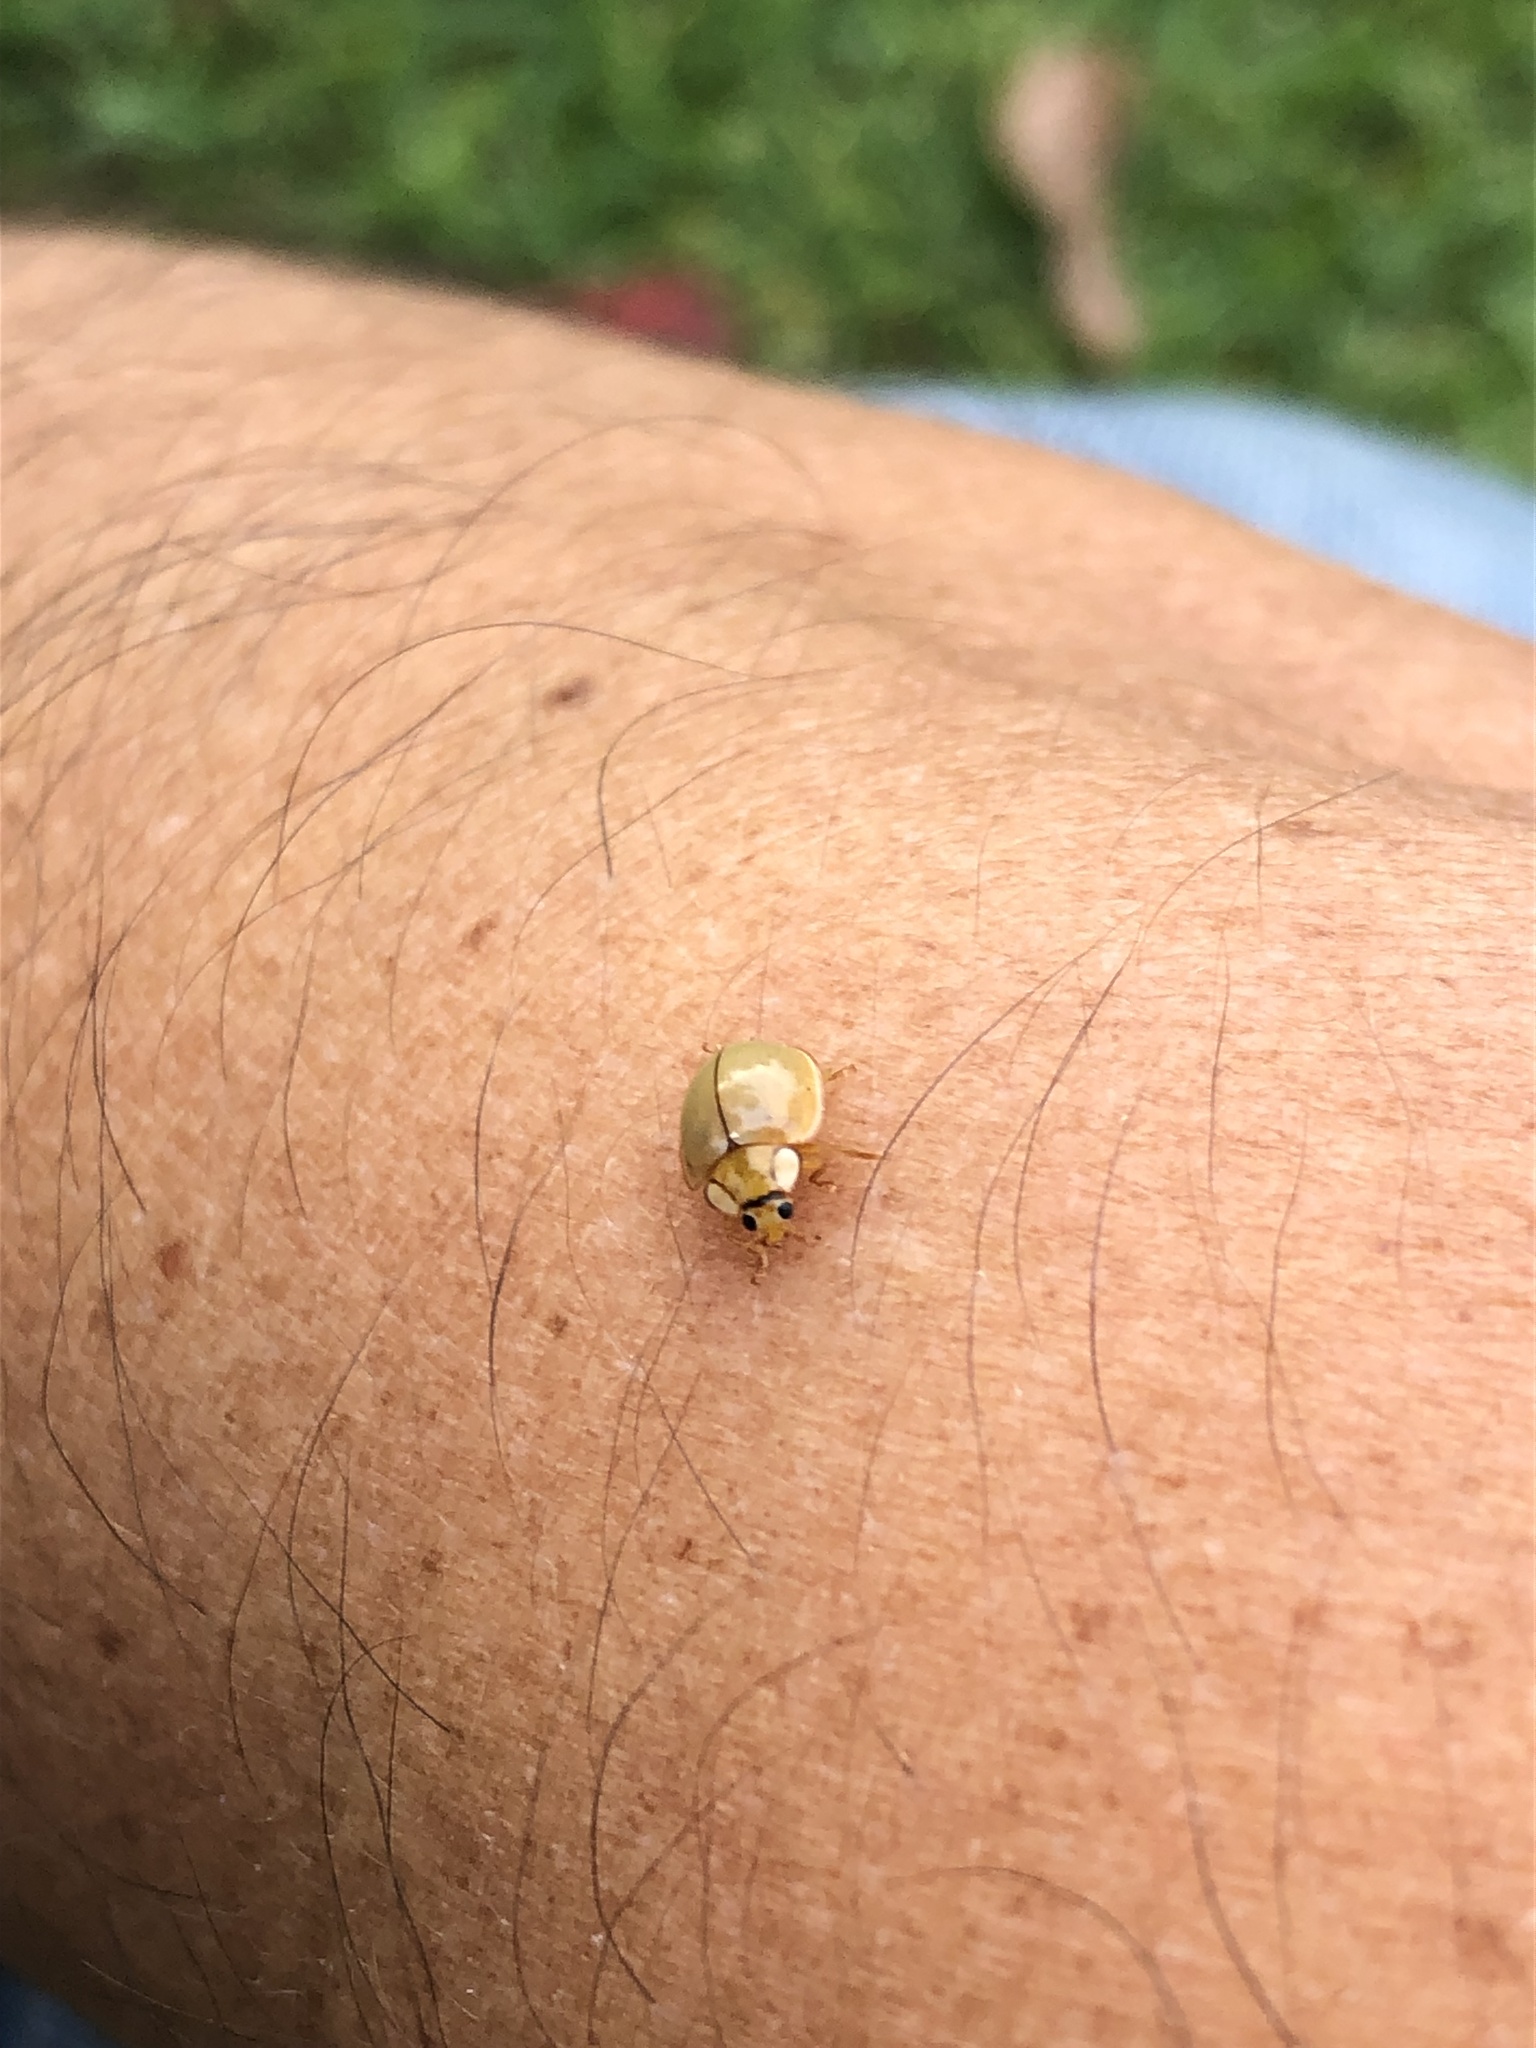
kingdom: Animalia
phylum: Arthropoda
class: Insecta
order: Coleoptera
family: Coccinellidae
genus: Paraneda
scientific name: Paraneda
